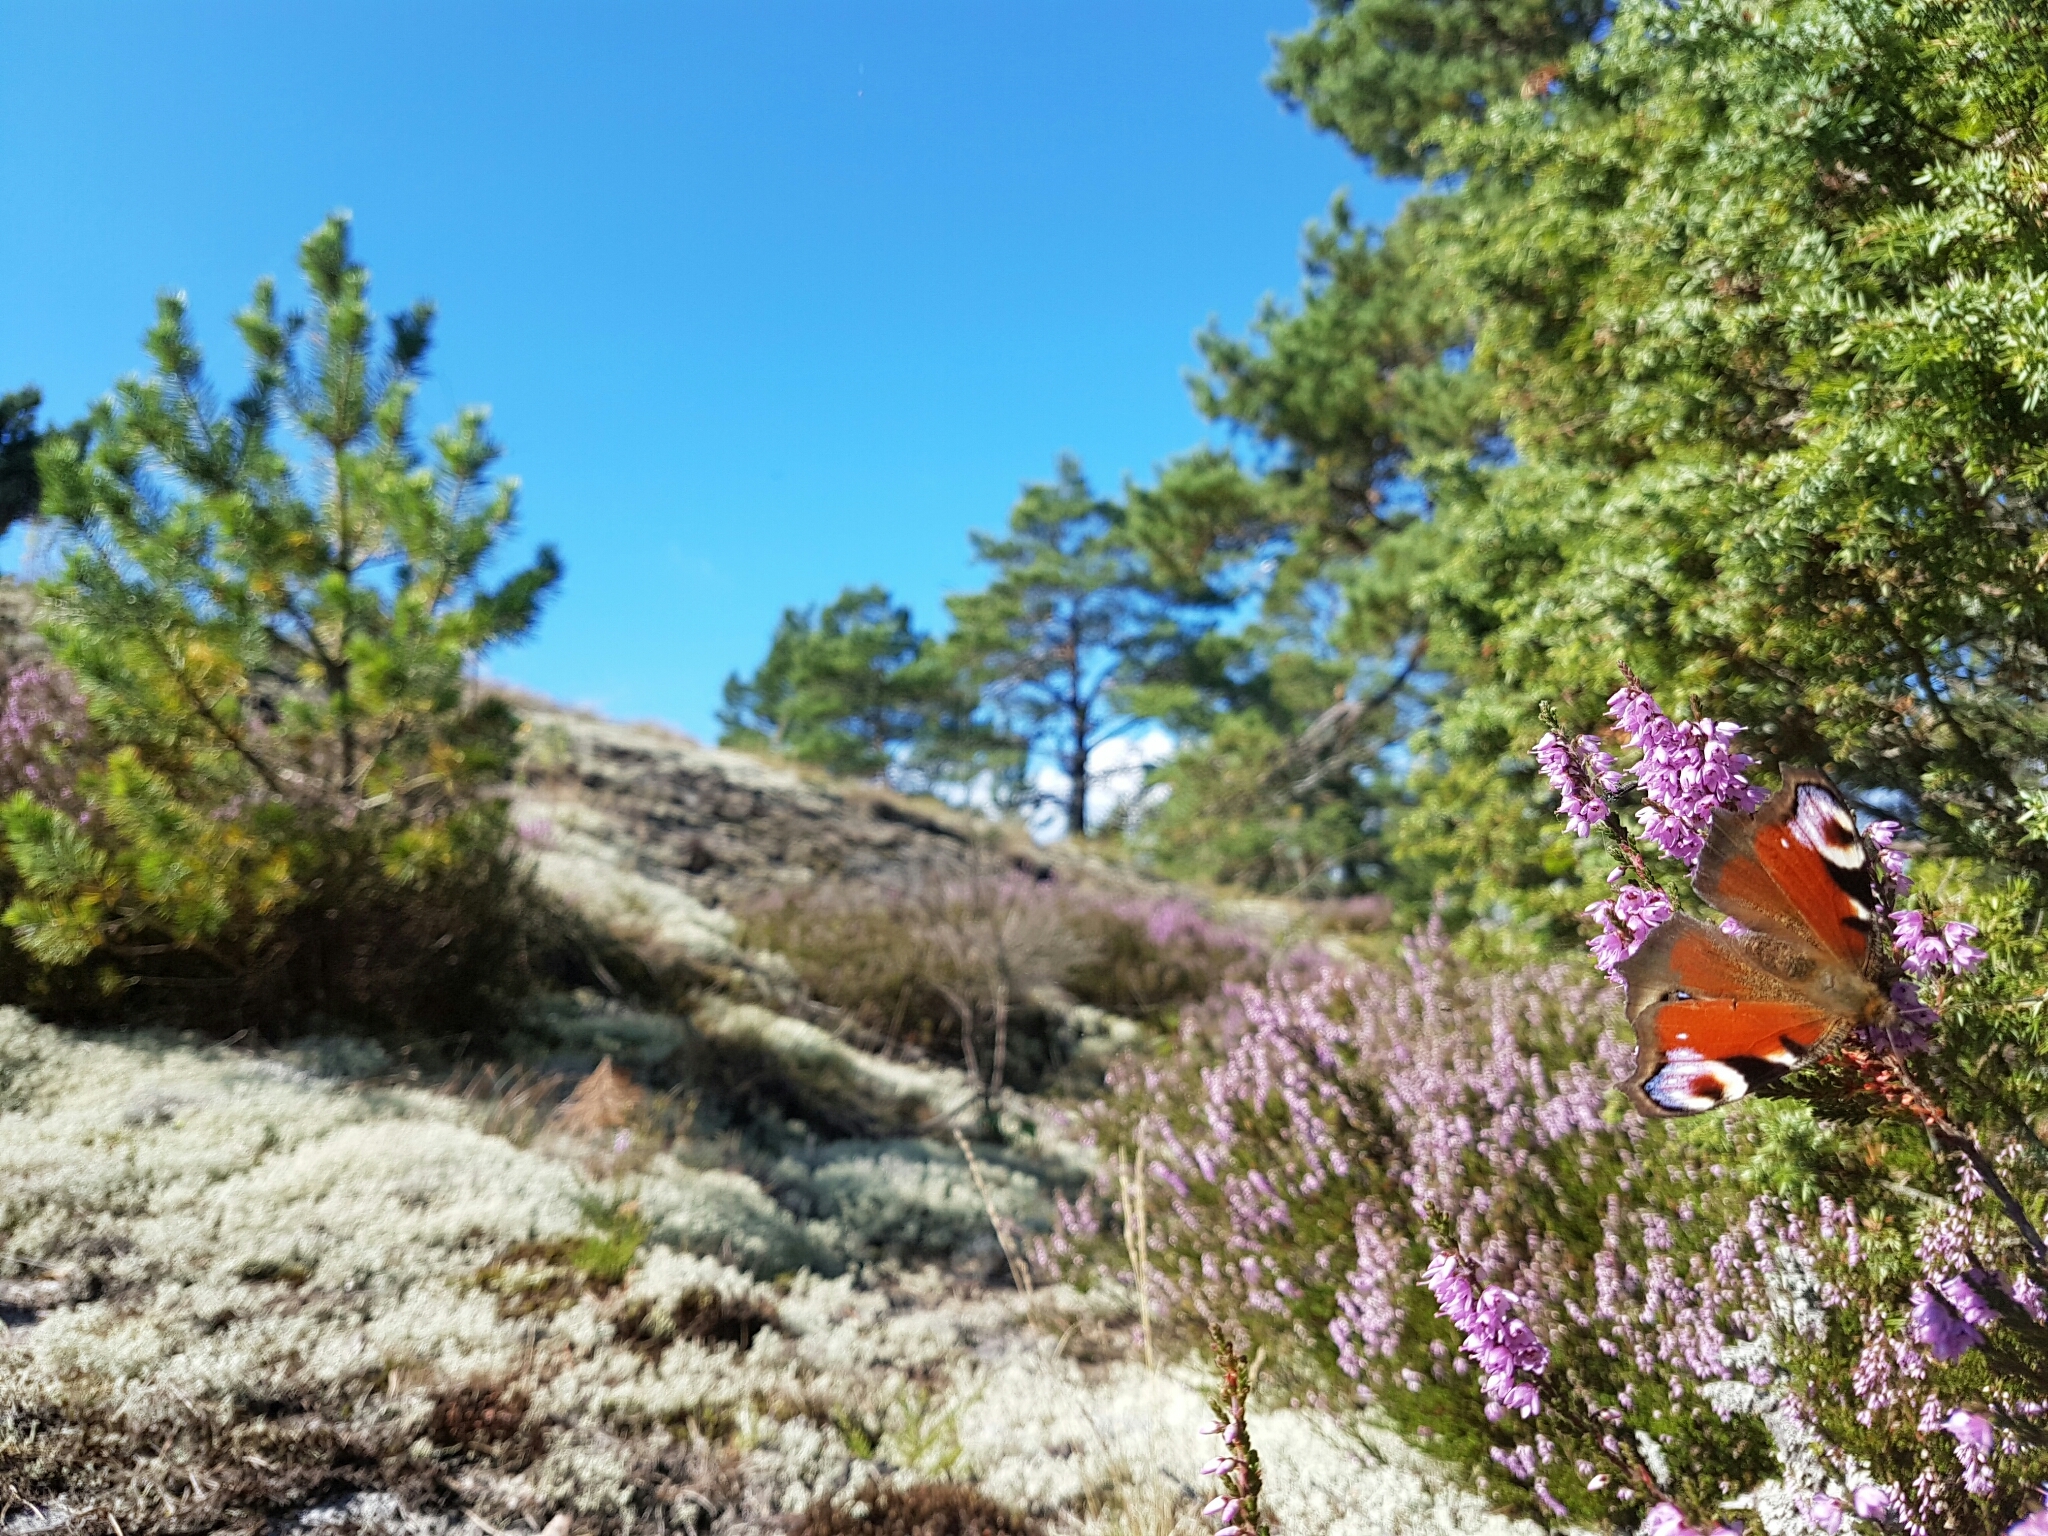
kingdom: Animalia
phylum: Arthropoda
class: Insecta
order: Lepidoptera
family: Nymphalidae
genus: Aglais
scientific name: Aglais io
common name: Peacock
